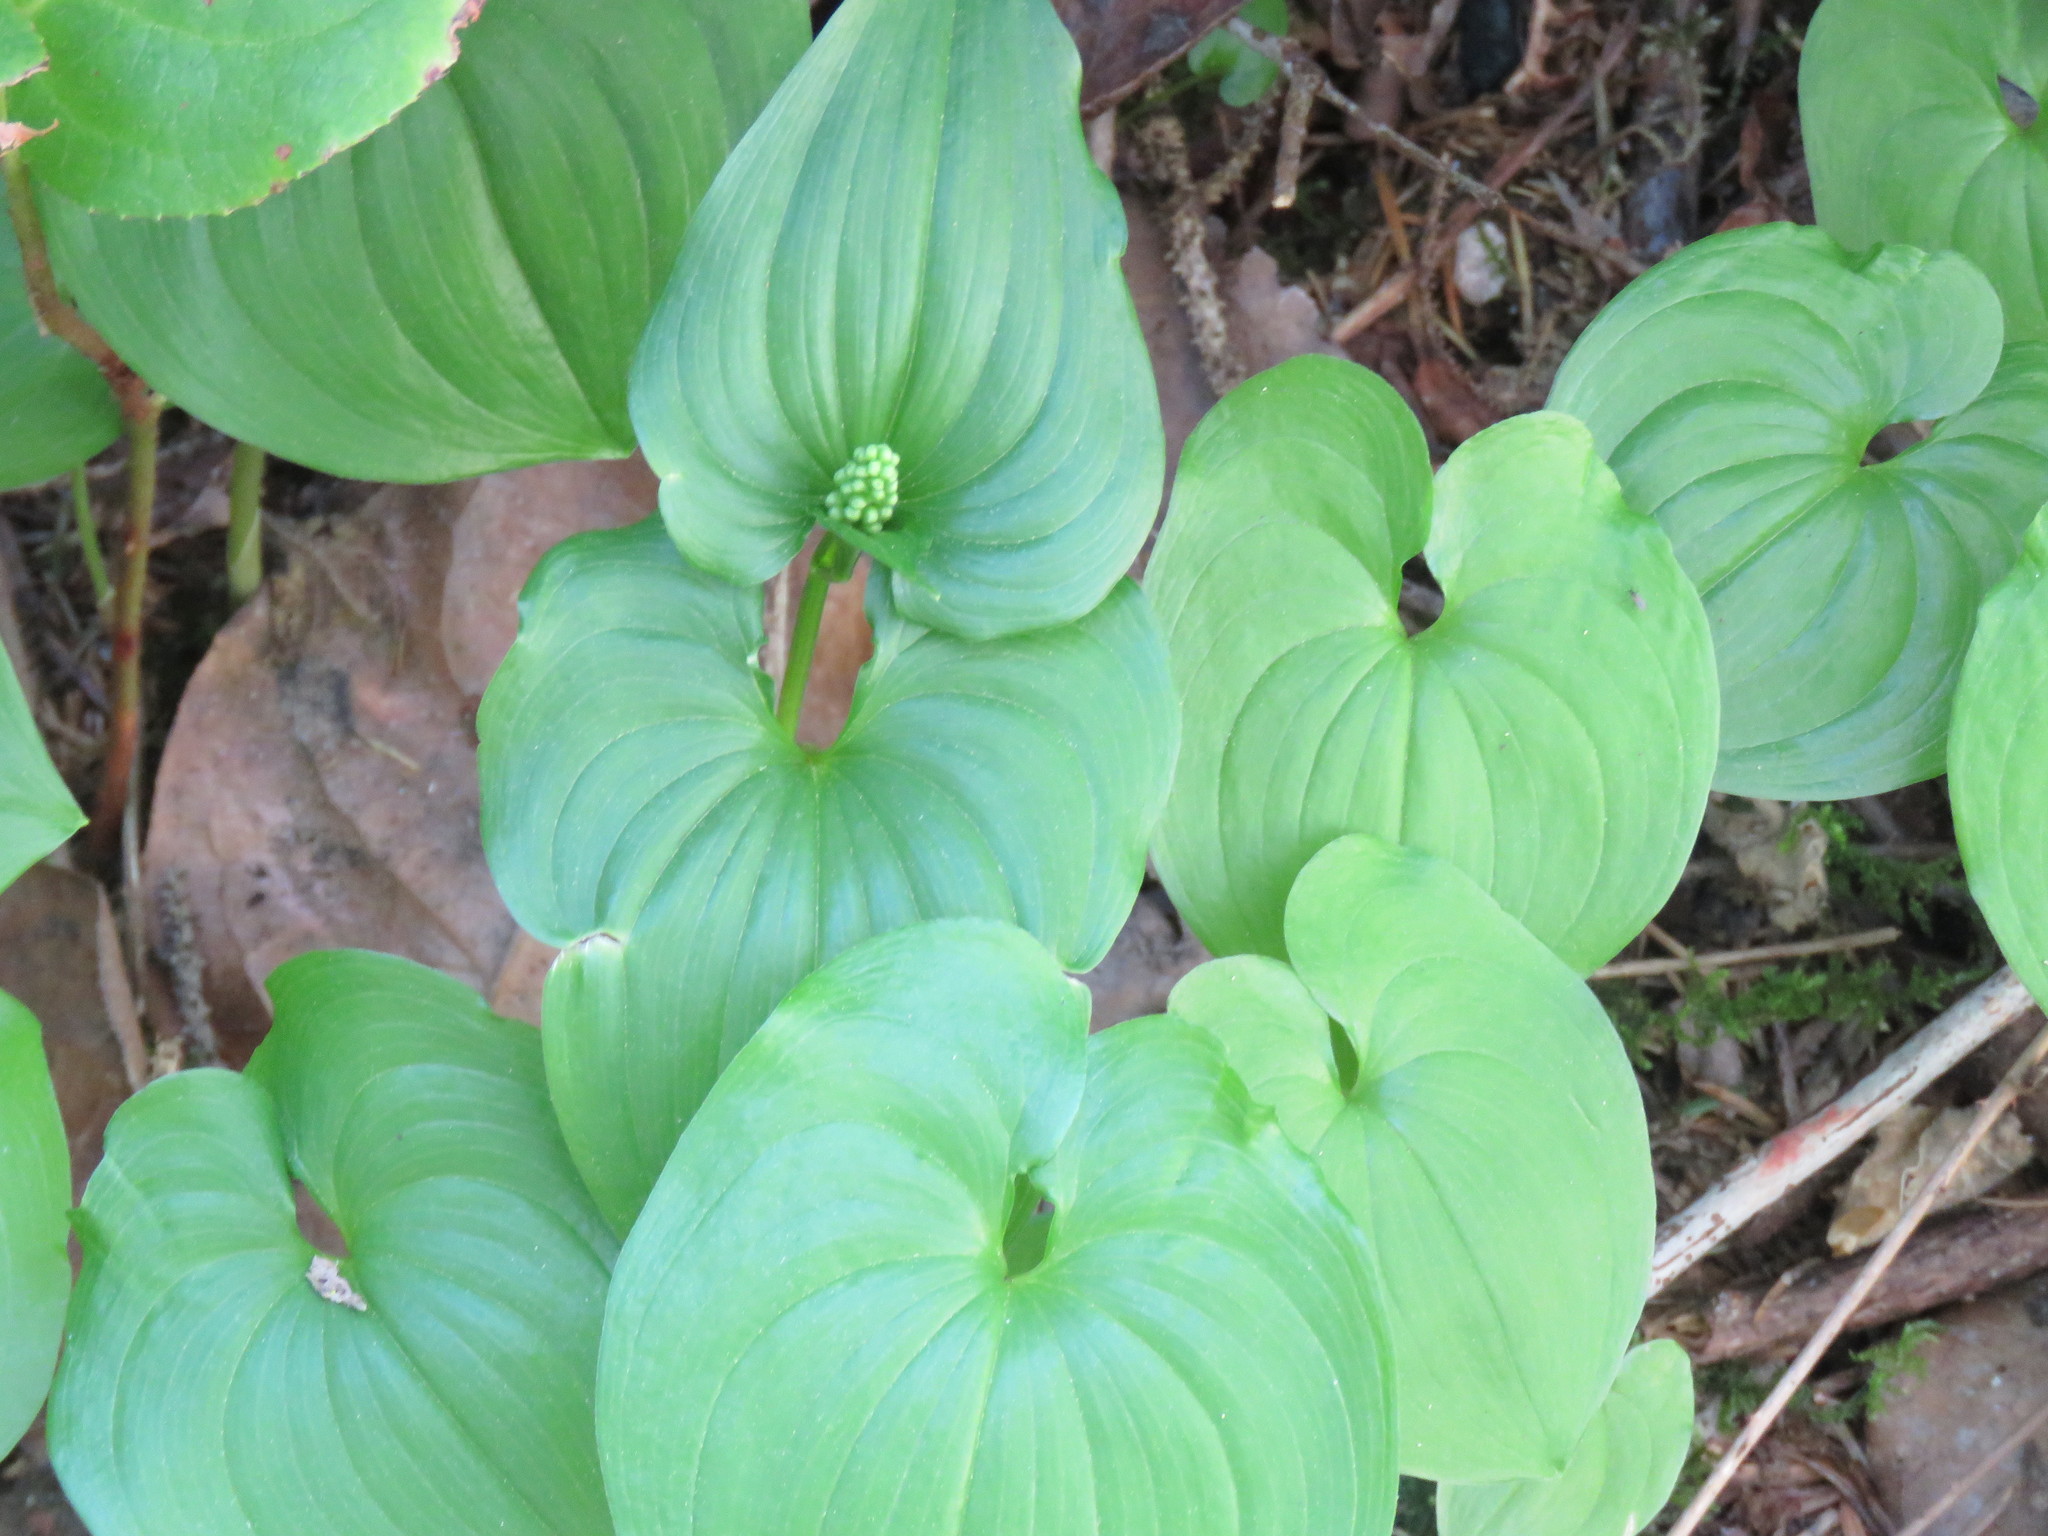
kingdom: Plantae
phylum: Tracheophyta
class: Liliopsida
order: Asparagales
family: Asparagaceae
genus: Maianthemum
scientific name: Maianthemum dilatatum
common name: False lily-of-the-valley
